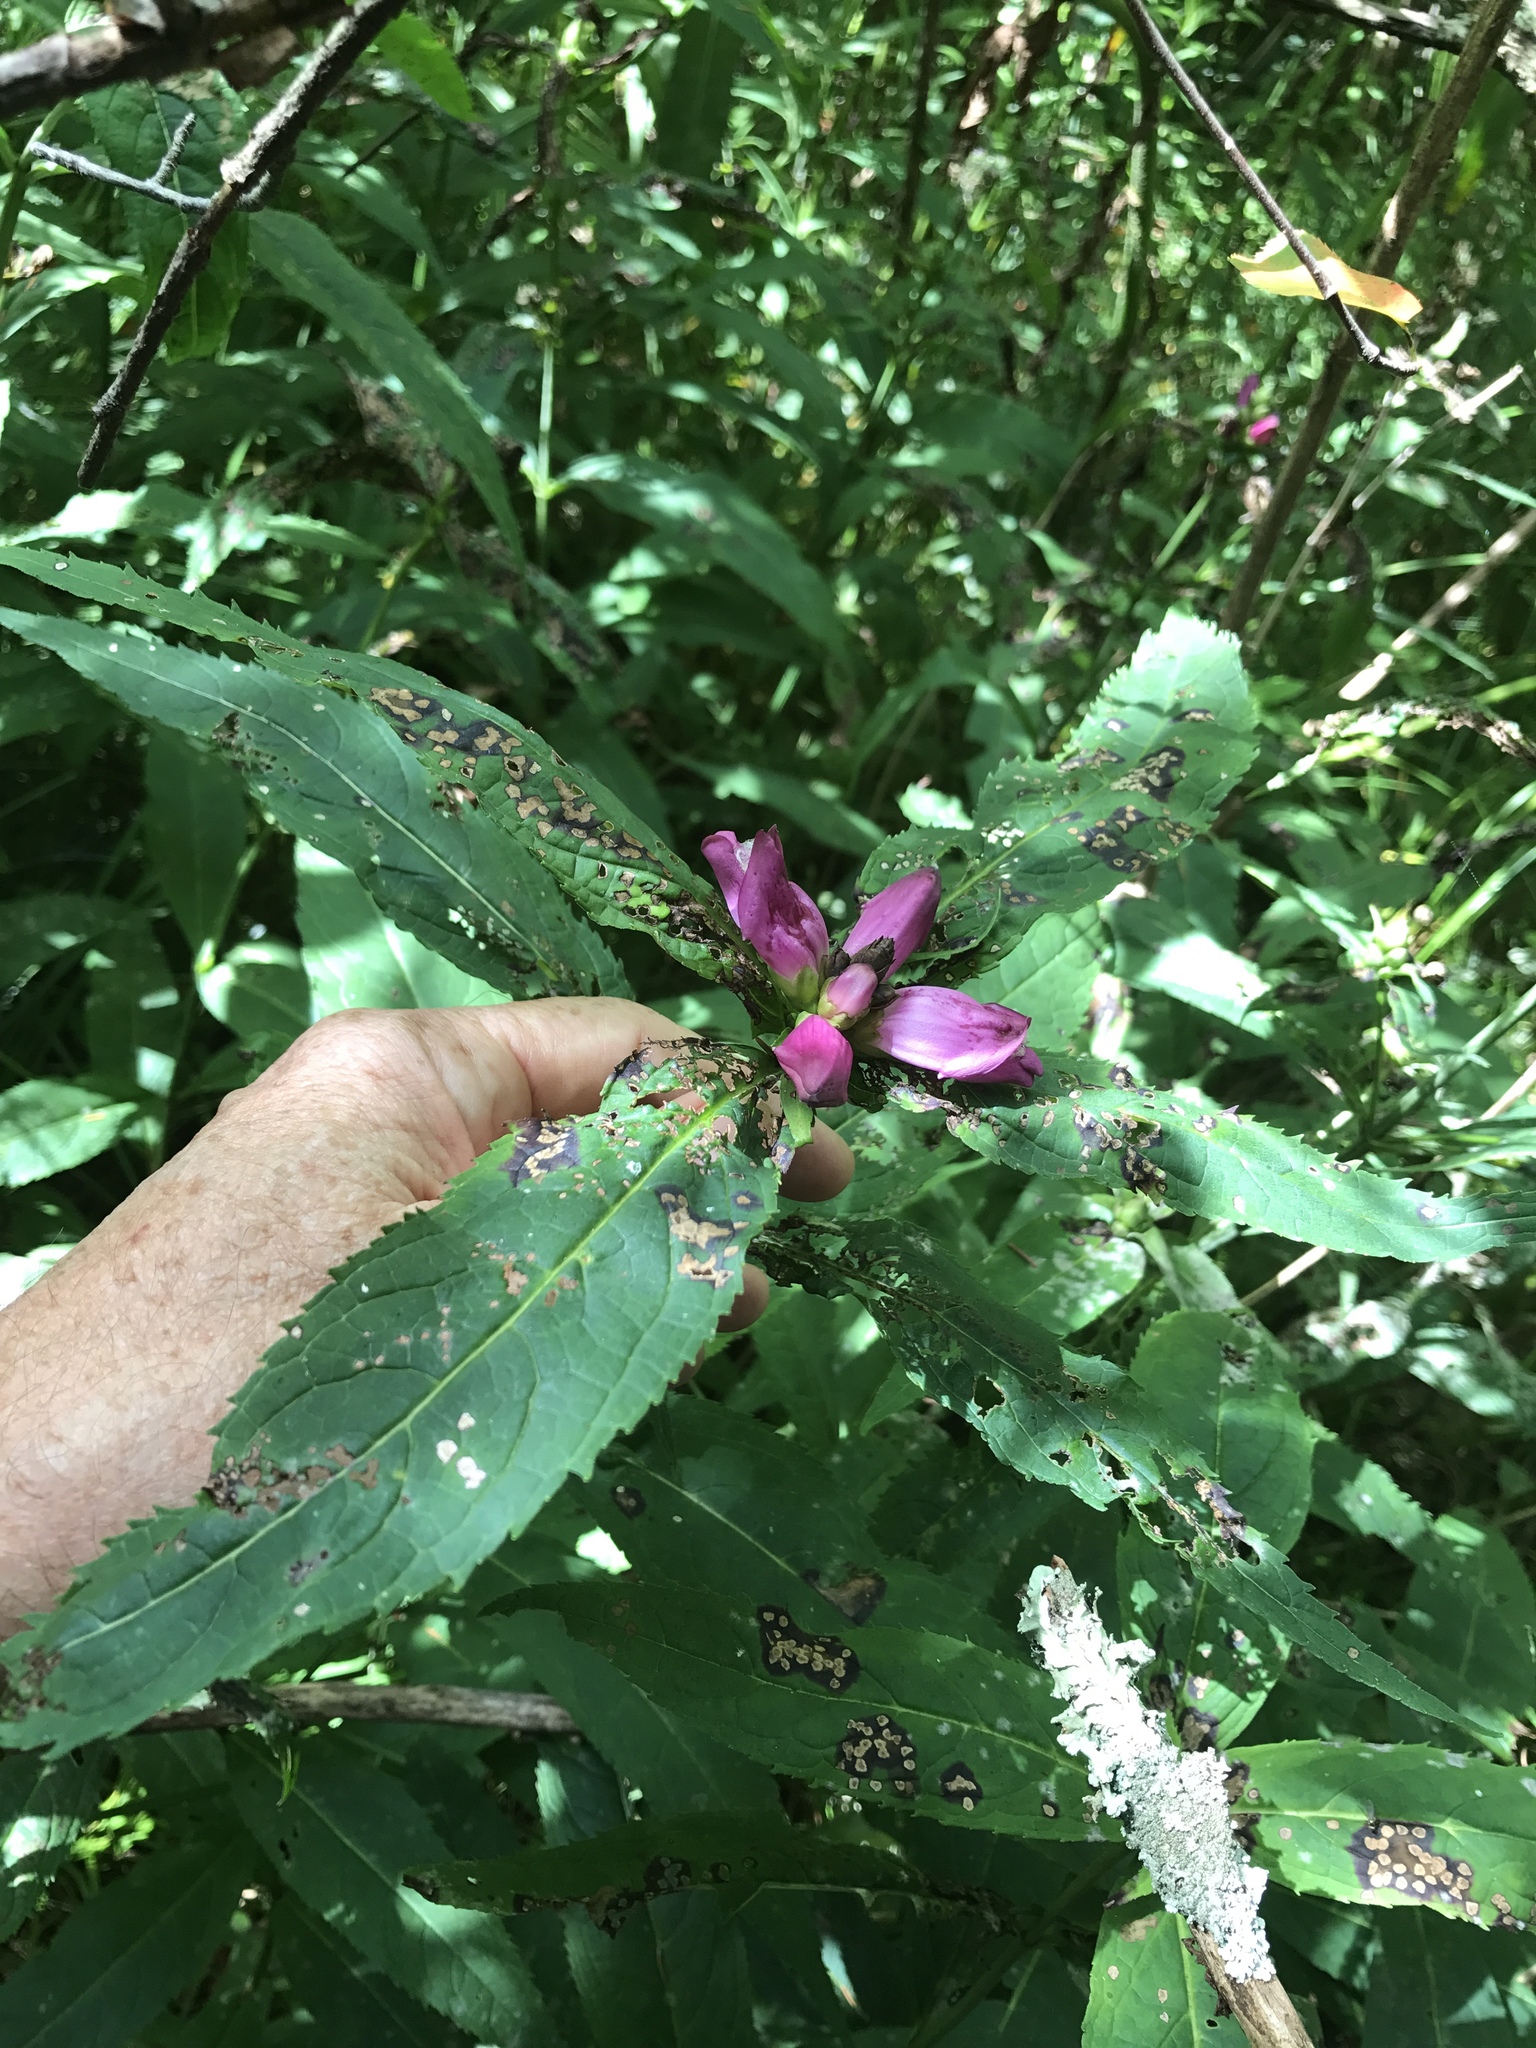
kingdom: Plantae
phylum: Tracheophyta
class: Magnoliopsida
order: Lamiales
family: Plantaginaceae
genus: Chelone
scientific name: Chelone obliqua
